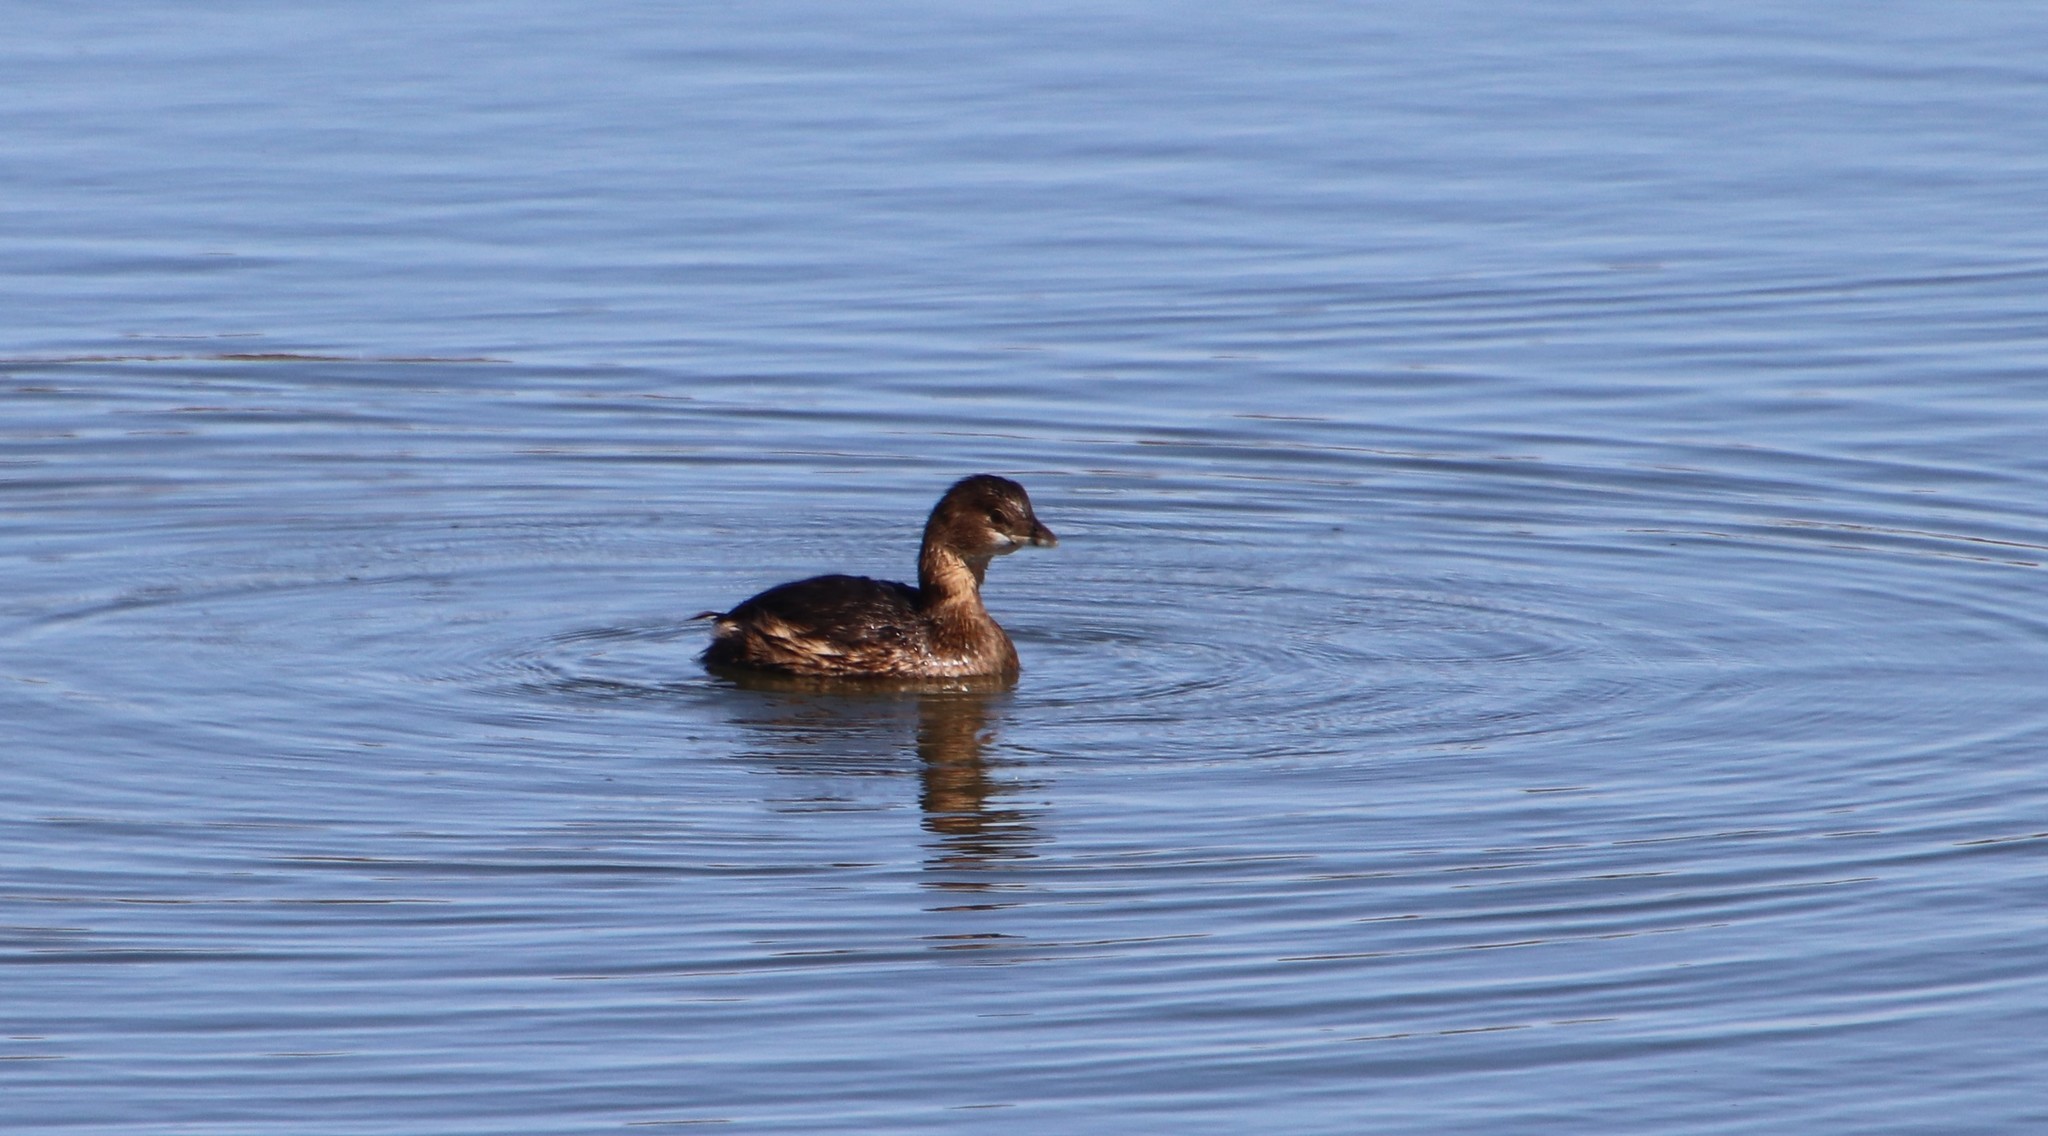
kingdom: Animalia
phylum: Chordata
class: Aves
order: Podicipediformes
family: Podicipedidae
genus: Podilymbus
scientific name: Podilymbus podiceps
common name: Pied-billed grebe
